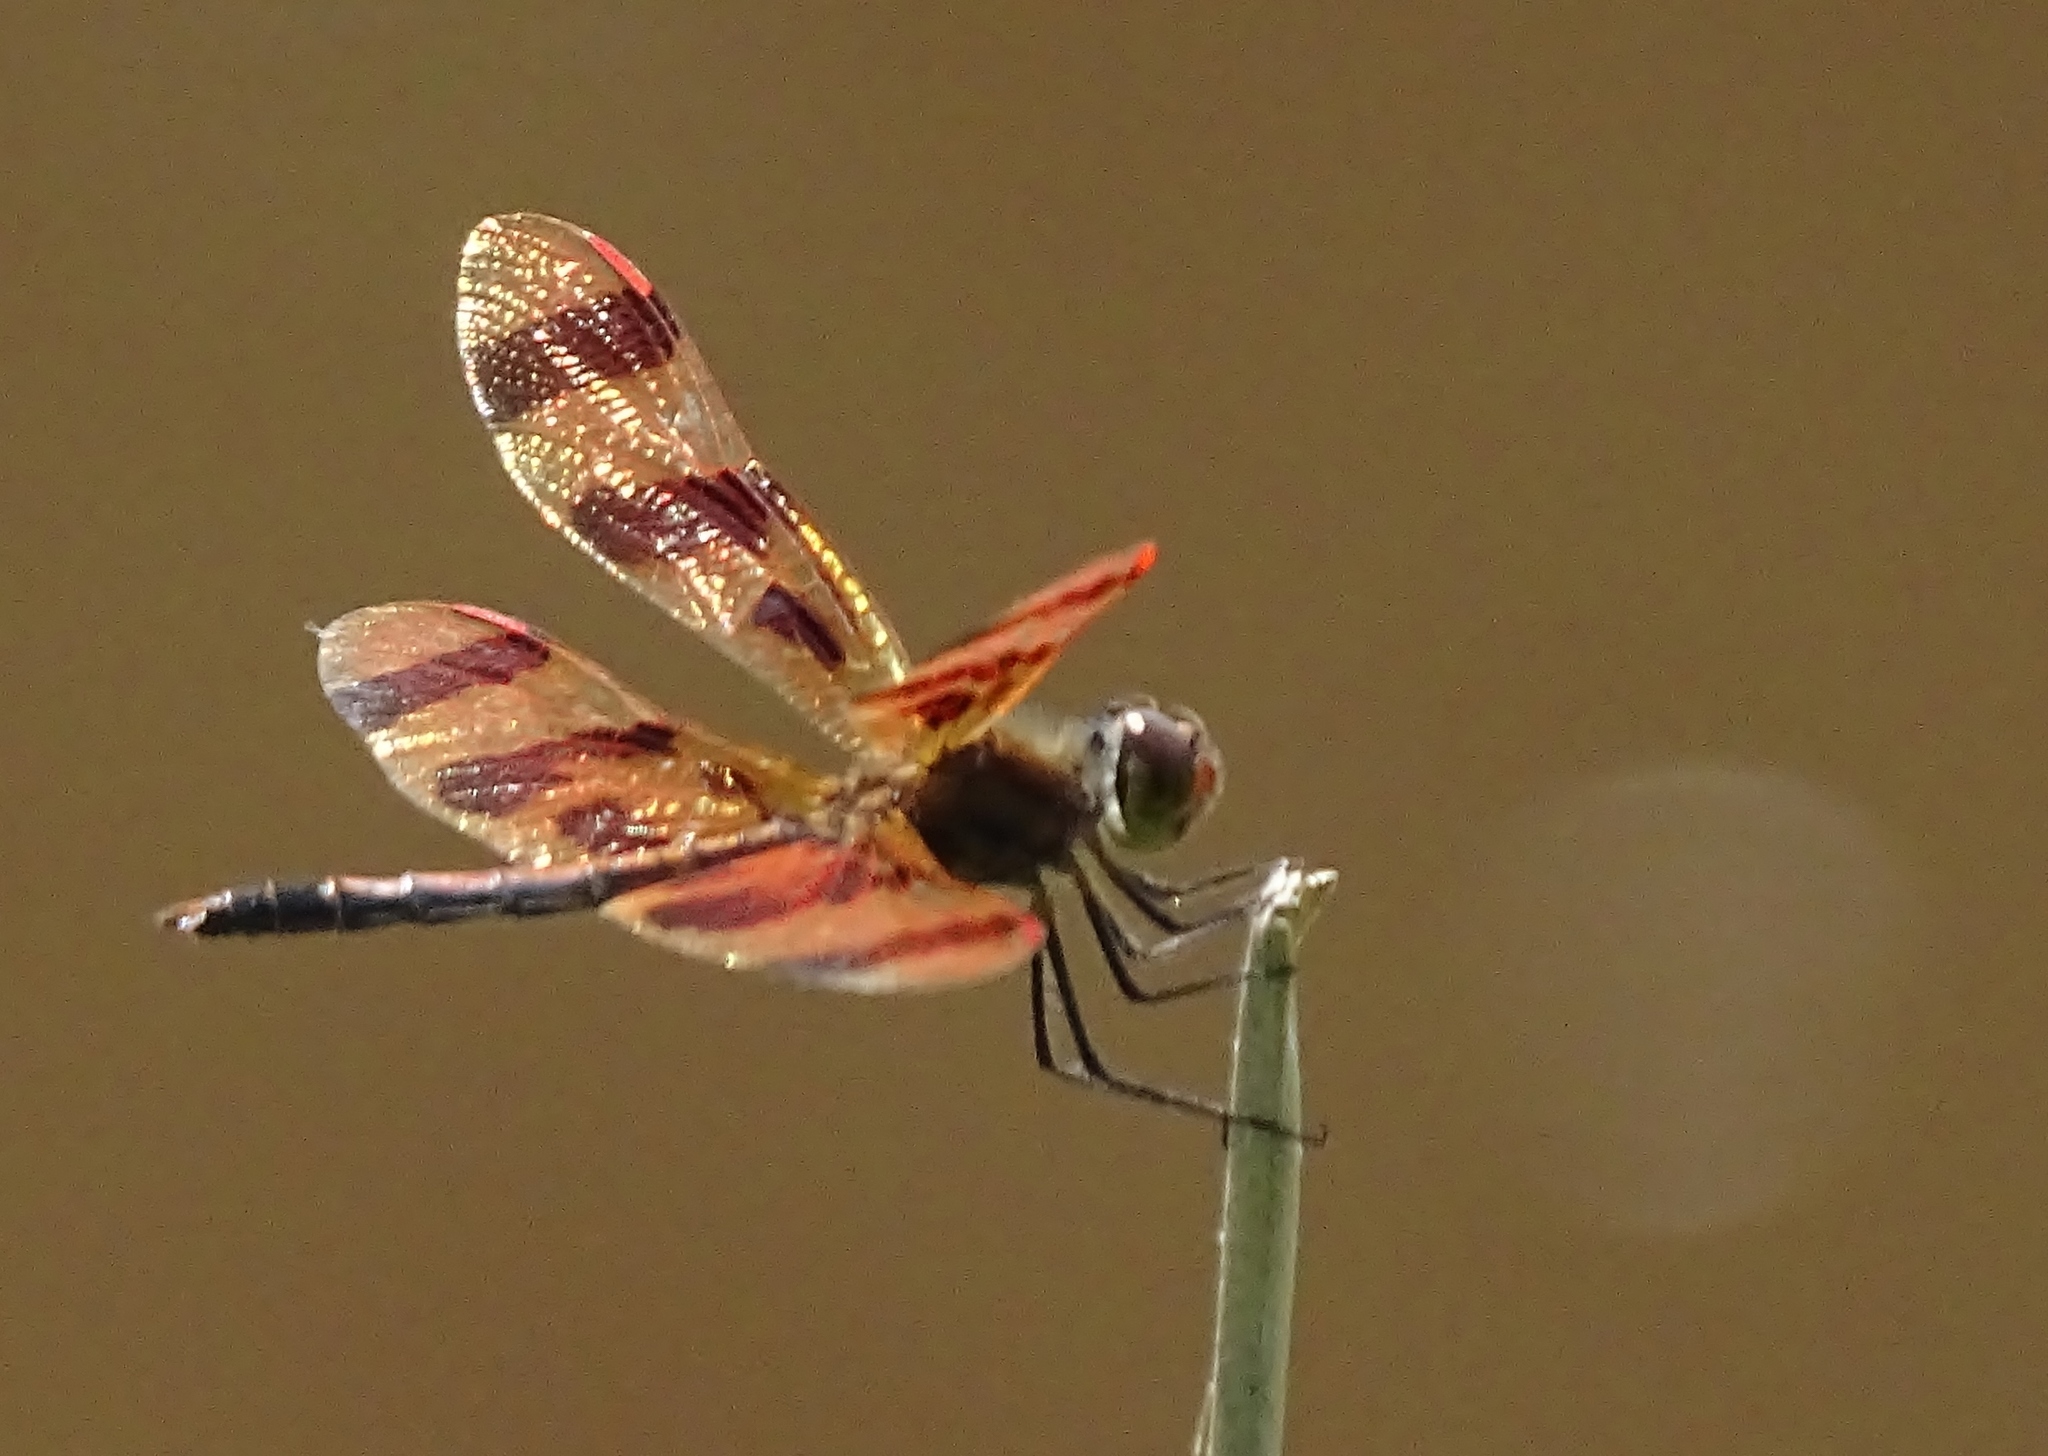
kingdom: Animalia
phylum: Arthropoda
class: Insecta
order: Odonata
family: Libellulidae
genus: Celithemis
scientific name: Celithemis eponina
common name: Halloween pennant
